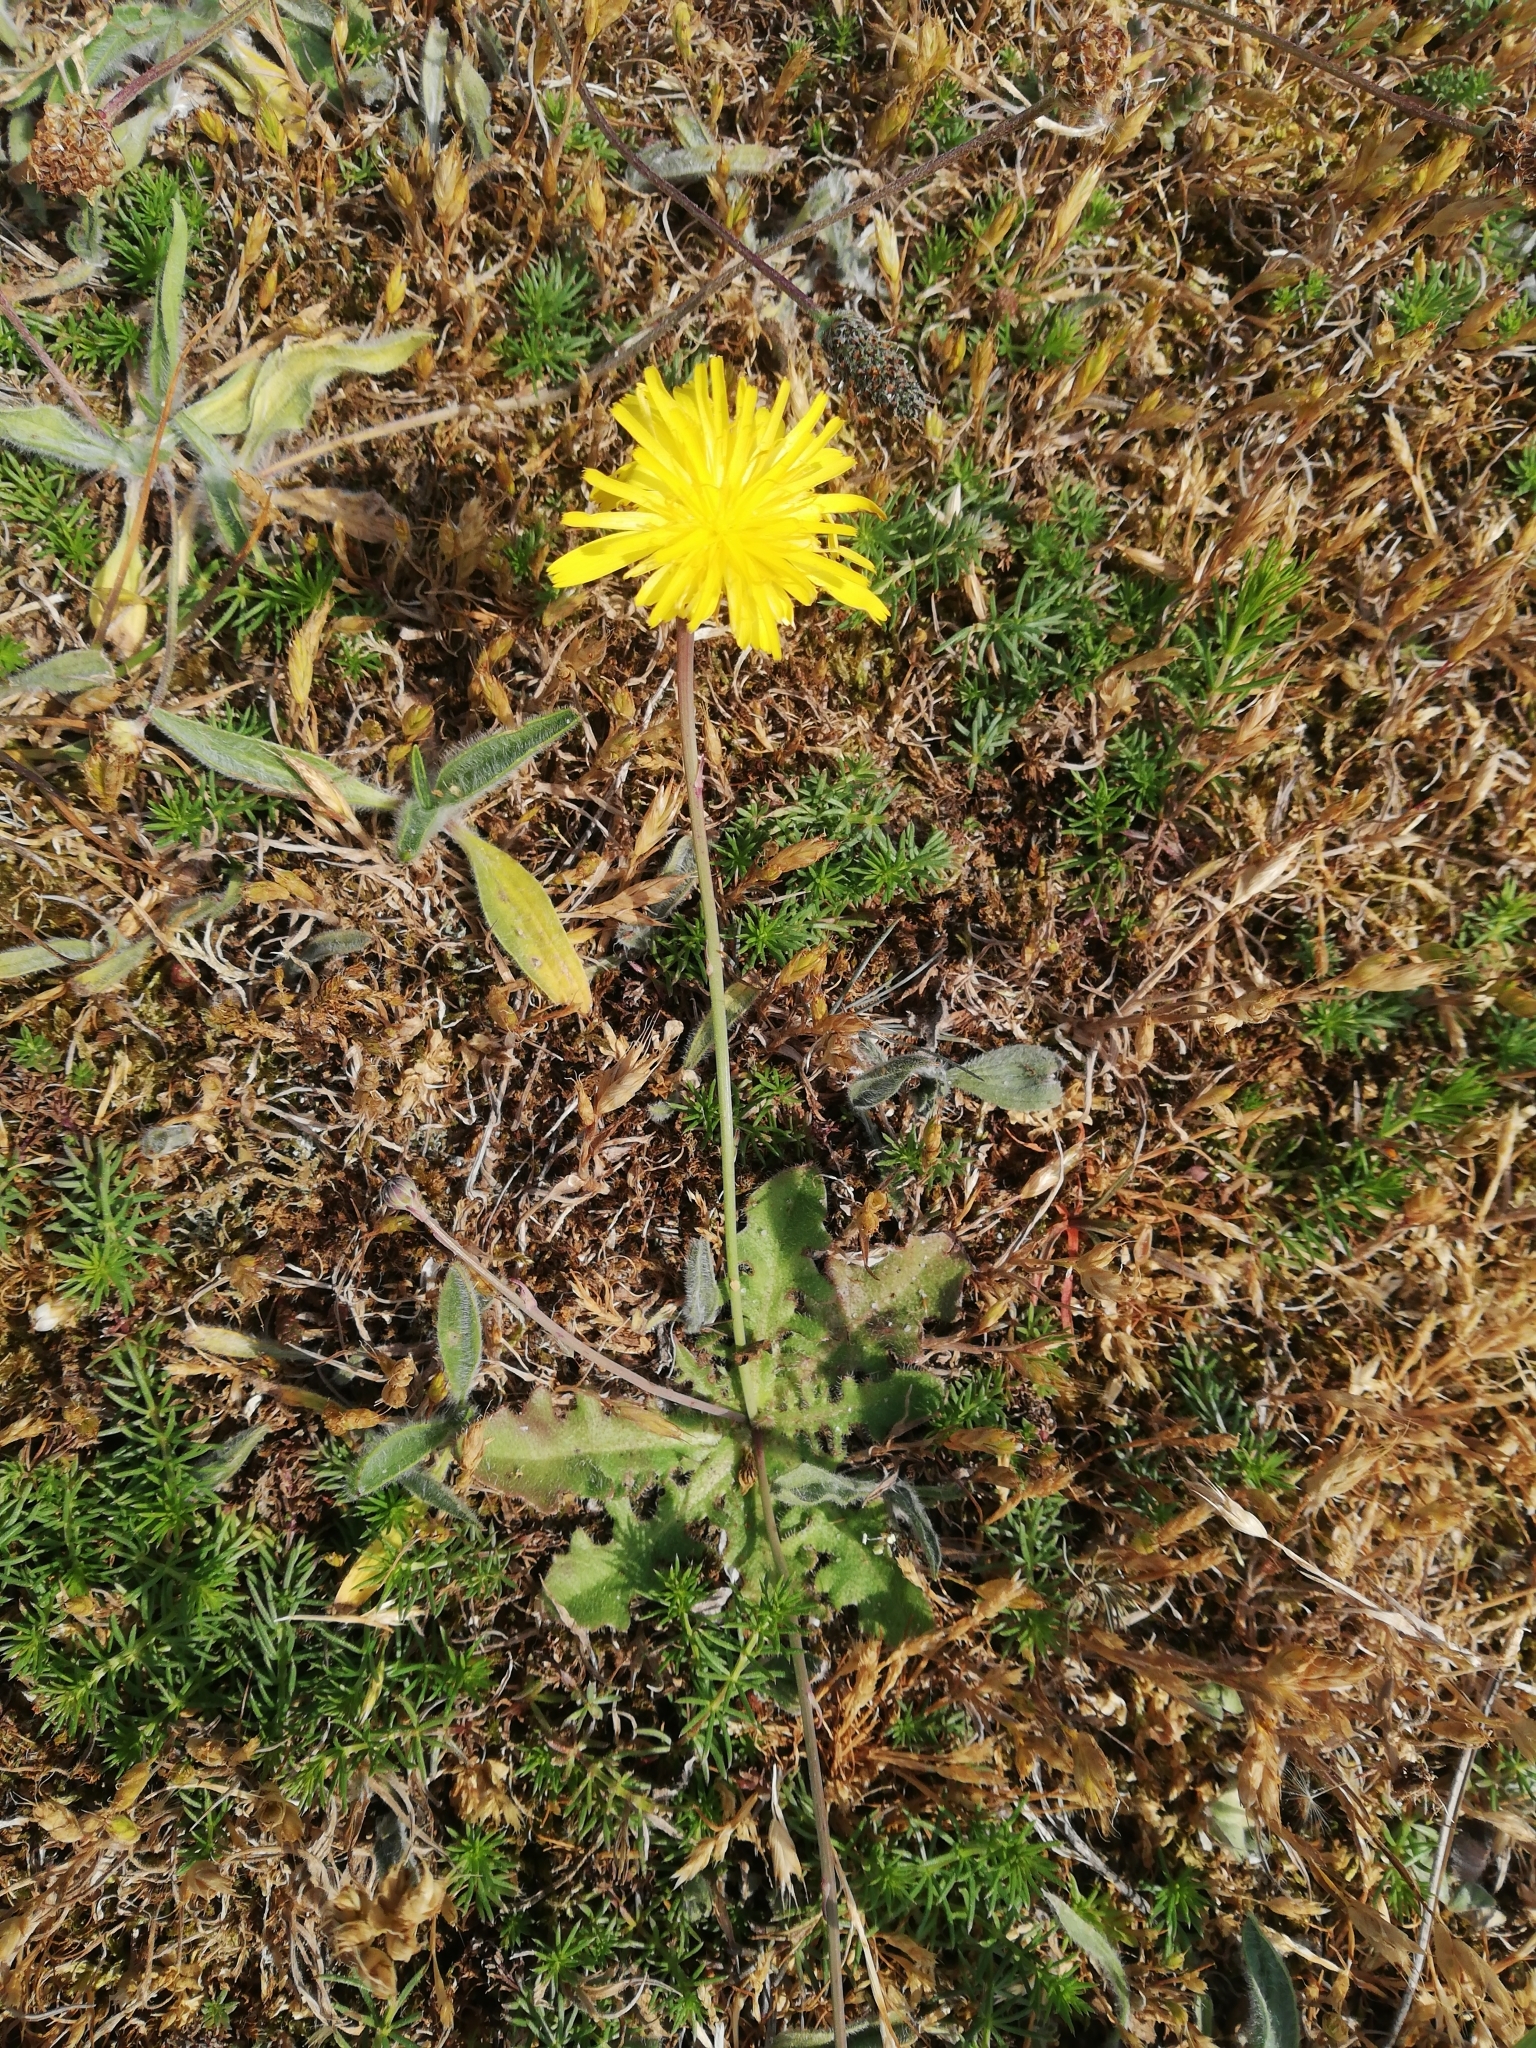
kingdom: Plantae
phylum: Tracheophyta
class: Magnoliopsida
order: Asterales
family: Asteraceae
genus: Hypochaeris
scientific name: Hypochaeris radicata
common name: Flatweed
